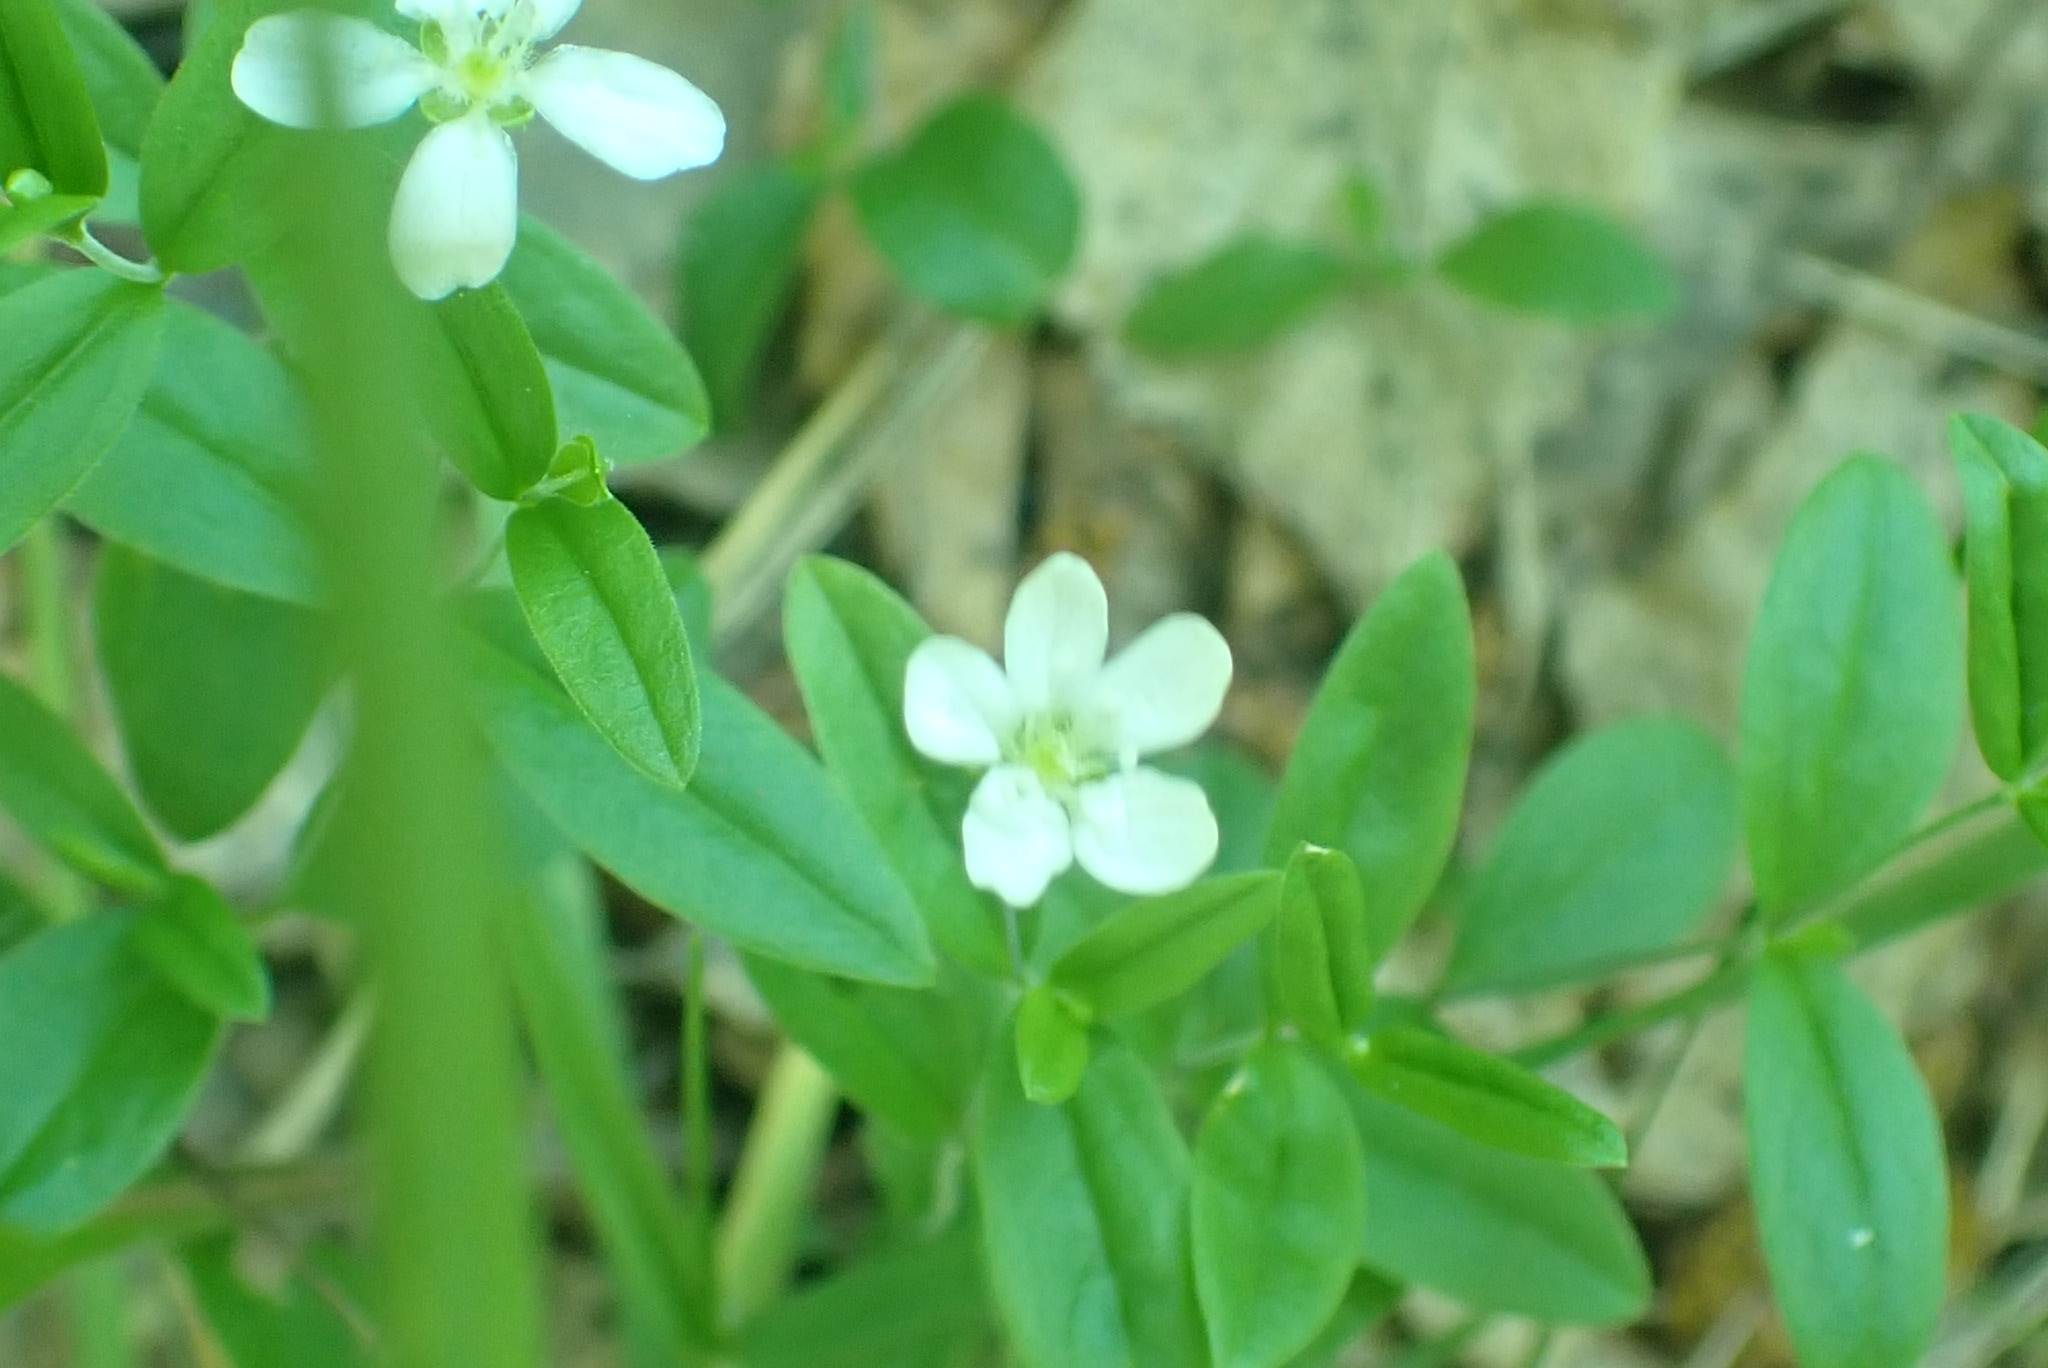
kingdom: Plantae
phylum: Tracheophyta
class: Magnoliopsida
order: Caryophyllales
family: Caryophyllaceae
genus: Moehringia
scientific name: Moehringia lateriflora
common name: Blunt-leaved sandwort
